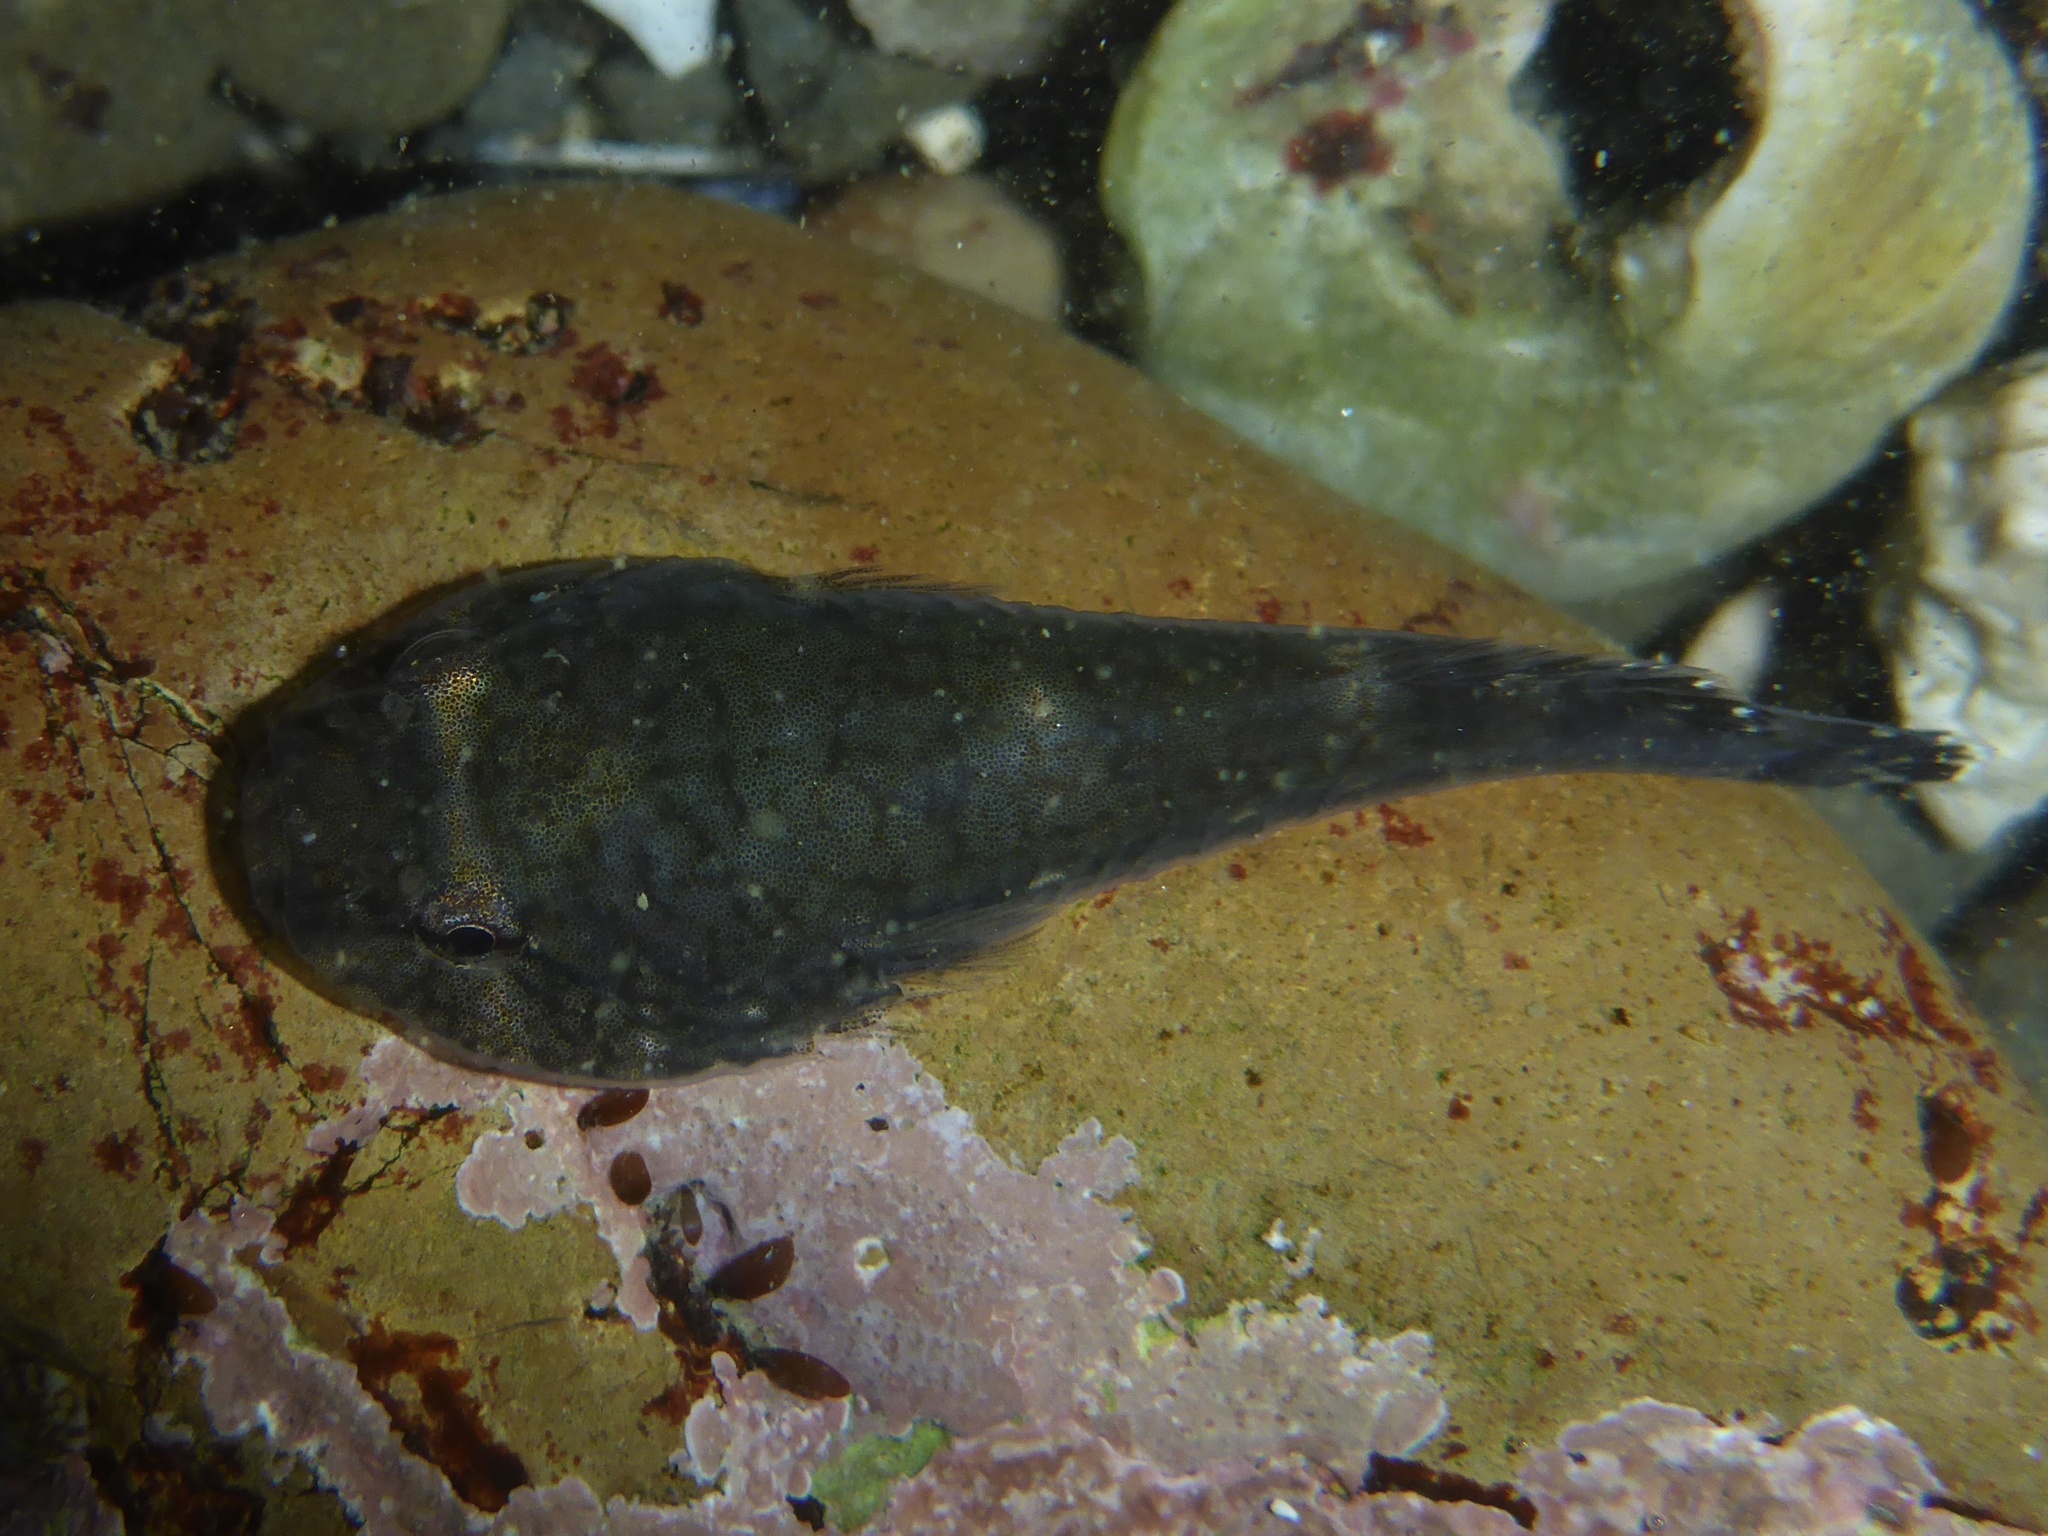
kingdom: Animalia
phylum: Chordata
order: Gobiesociformes
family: Gobiesocidae
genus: Gobiesox
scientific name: Gobiesox maeandricus
